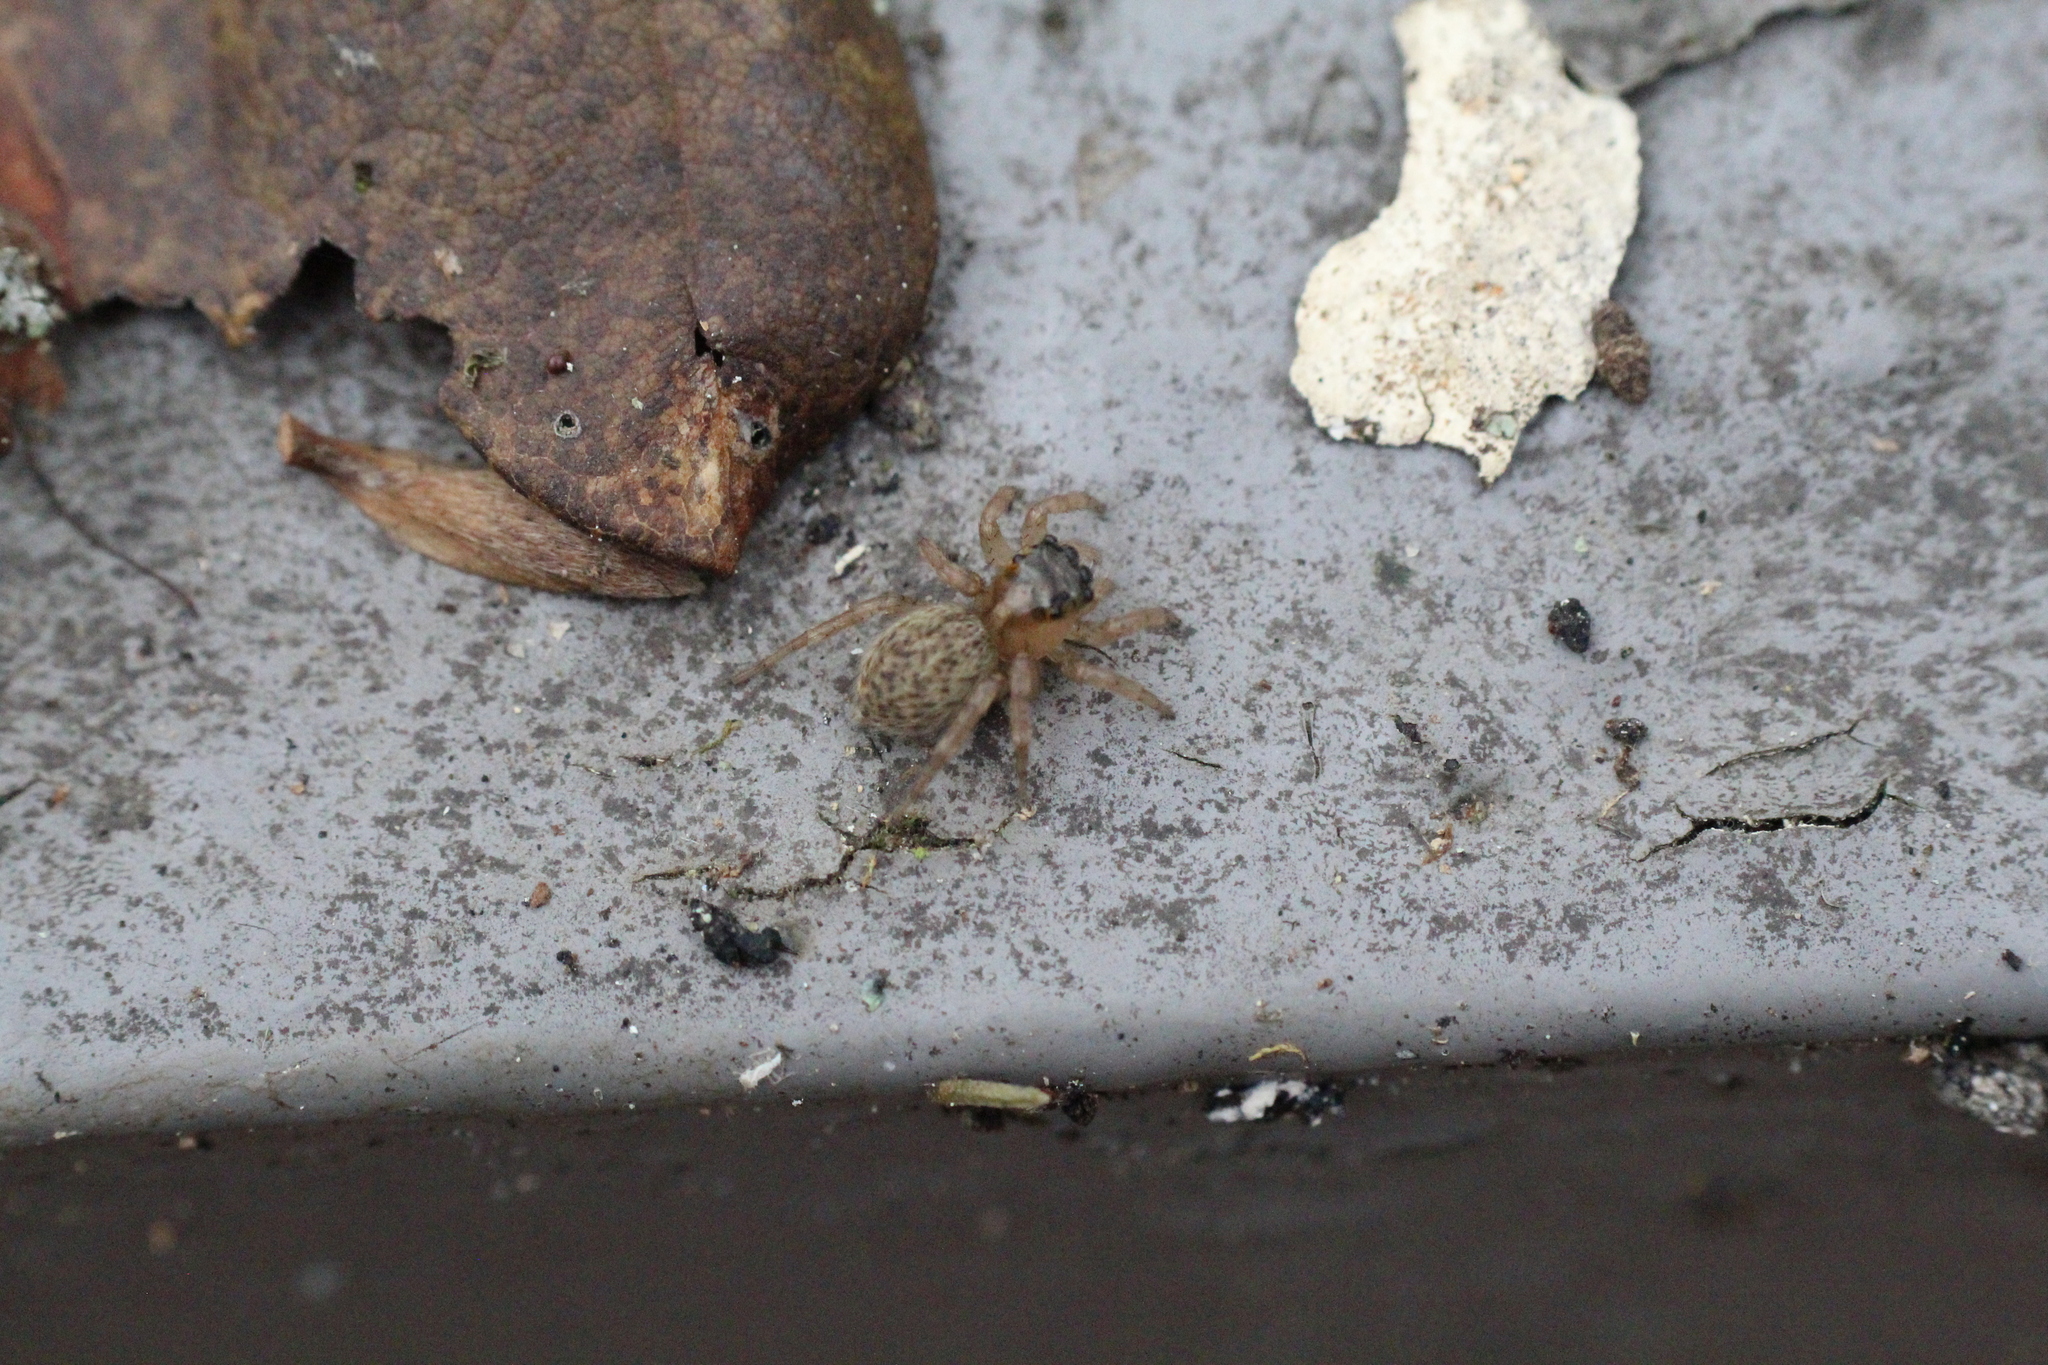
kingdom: Animalia
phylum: Arthropoda
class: Arachnida
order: Araneae
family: Salticidae
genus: Saitis
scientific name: Saitis barbipes
